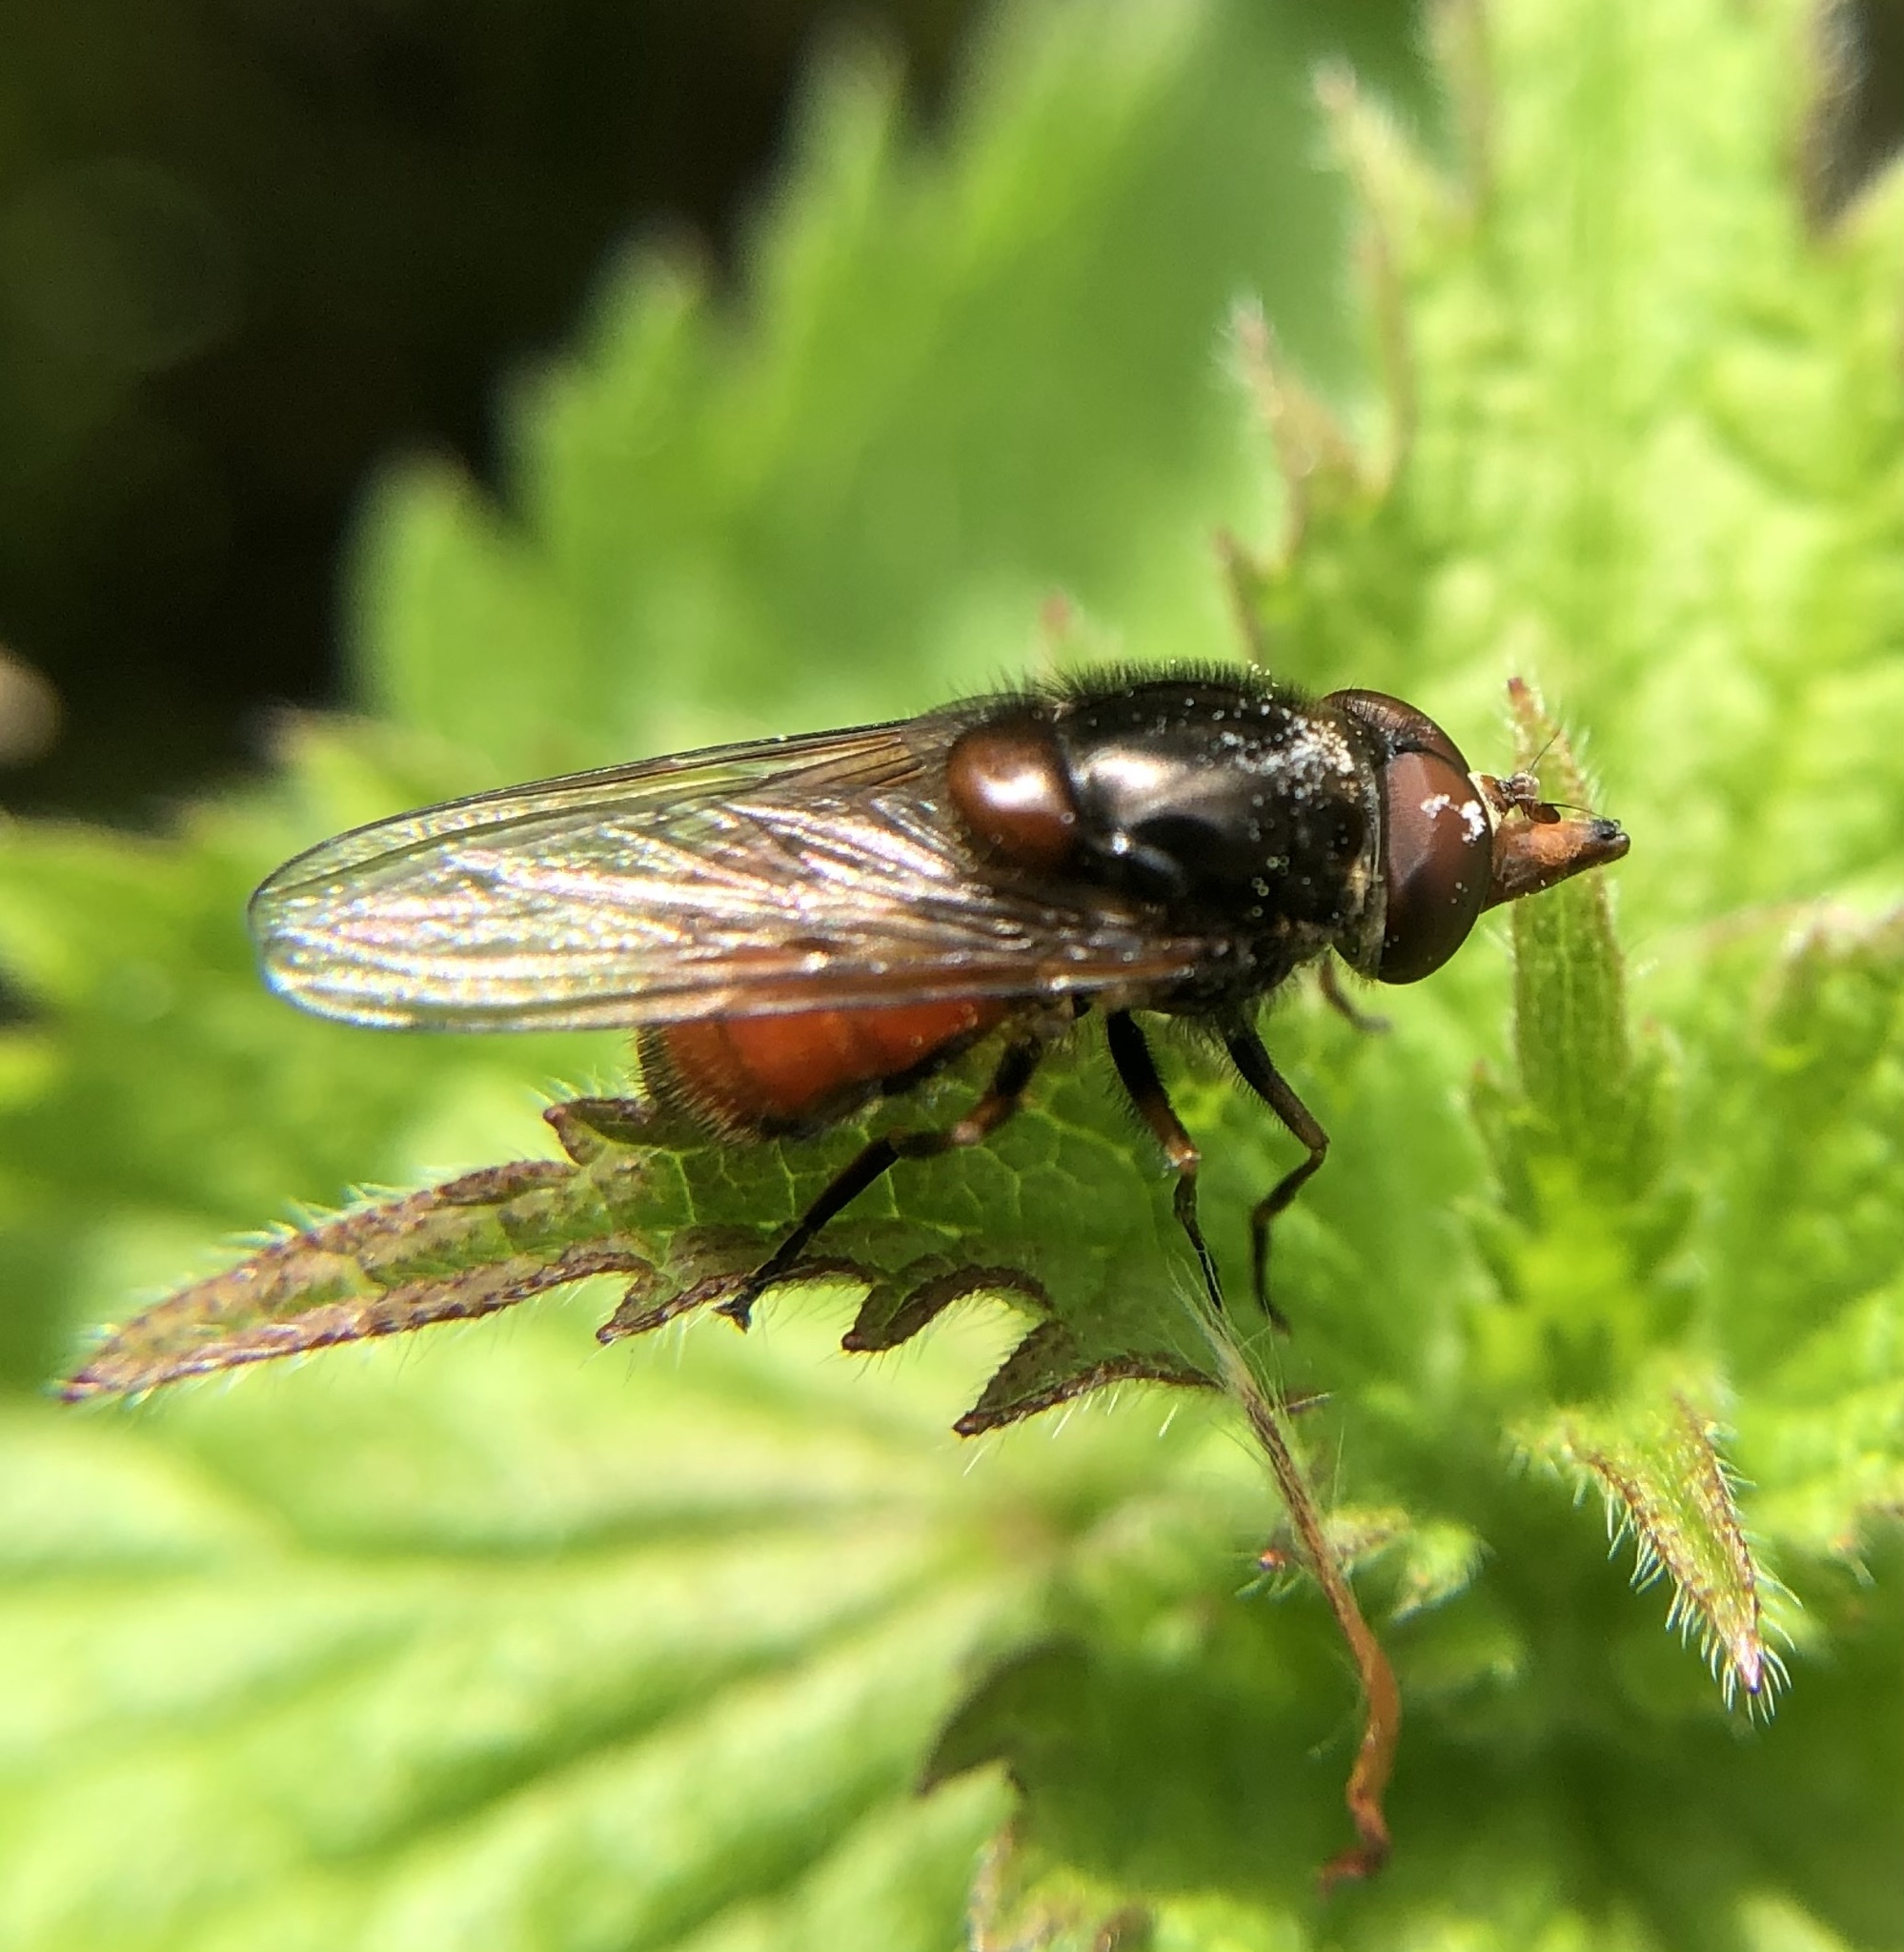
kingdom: Animalia
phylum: Arthropoda
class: Insecta
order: Diptera
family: Syrphidae
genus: Rhingia
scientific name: Rhingia campestris
